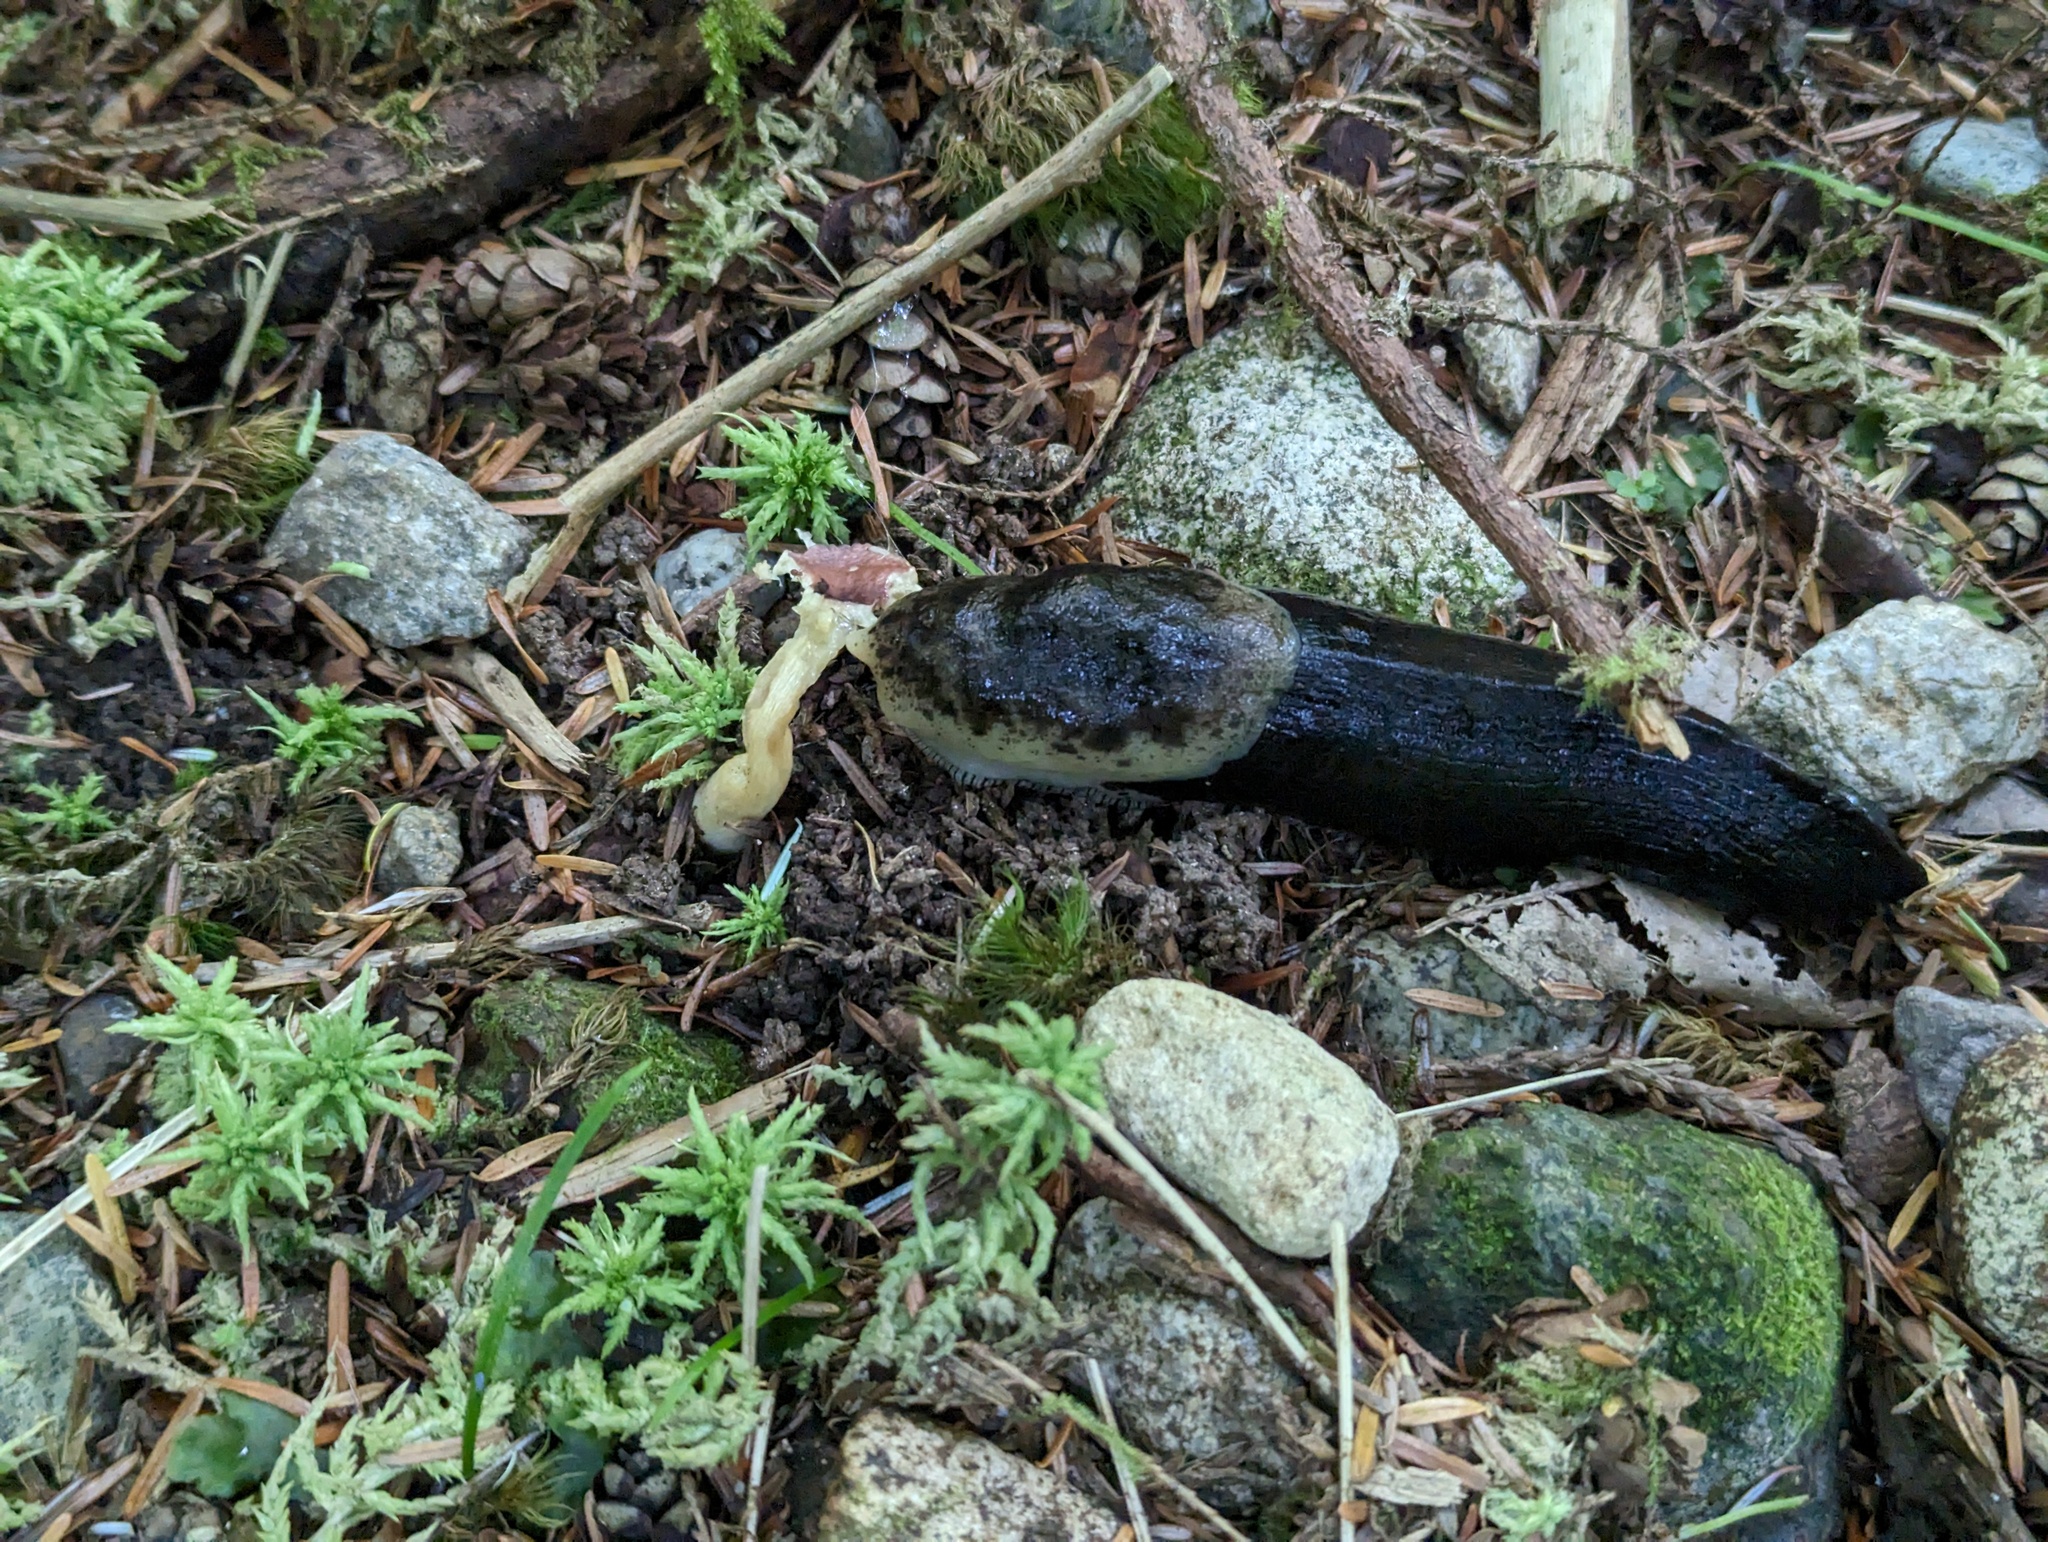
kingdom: Animalia
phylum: Mollusca
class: Gastropoda
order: Stylommatophora
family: Ariolimacidae
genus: Ariolimax
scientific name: Ariolimax columbianus
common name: Pacific banana slug
